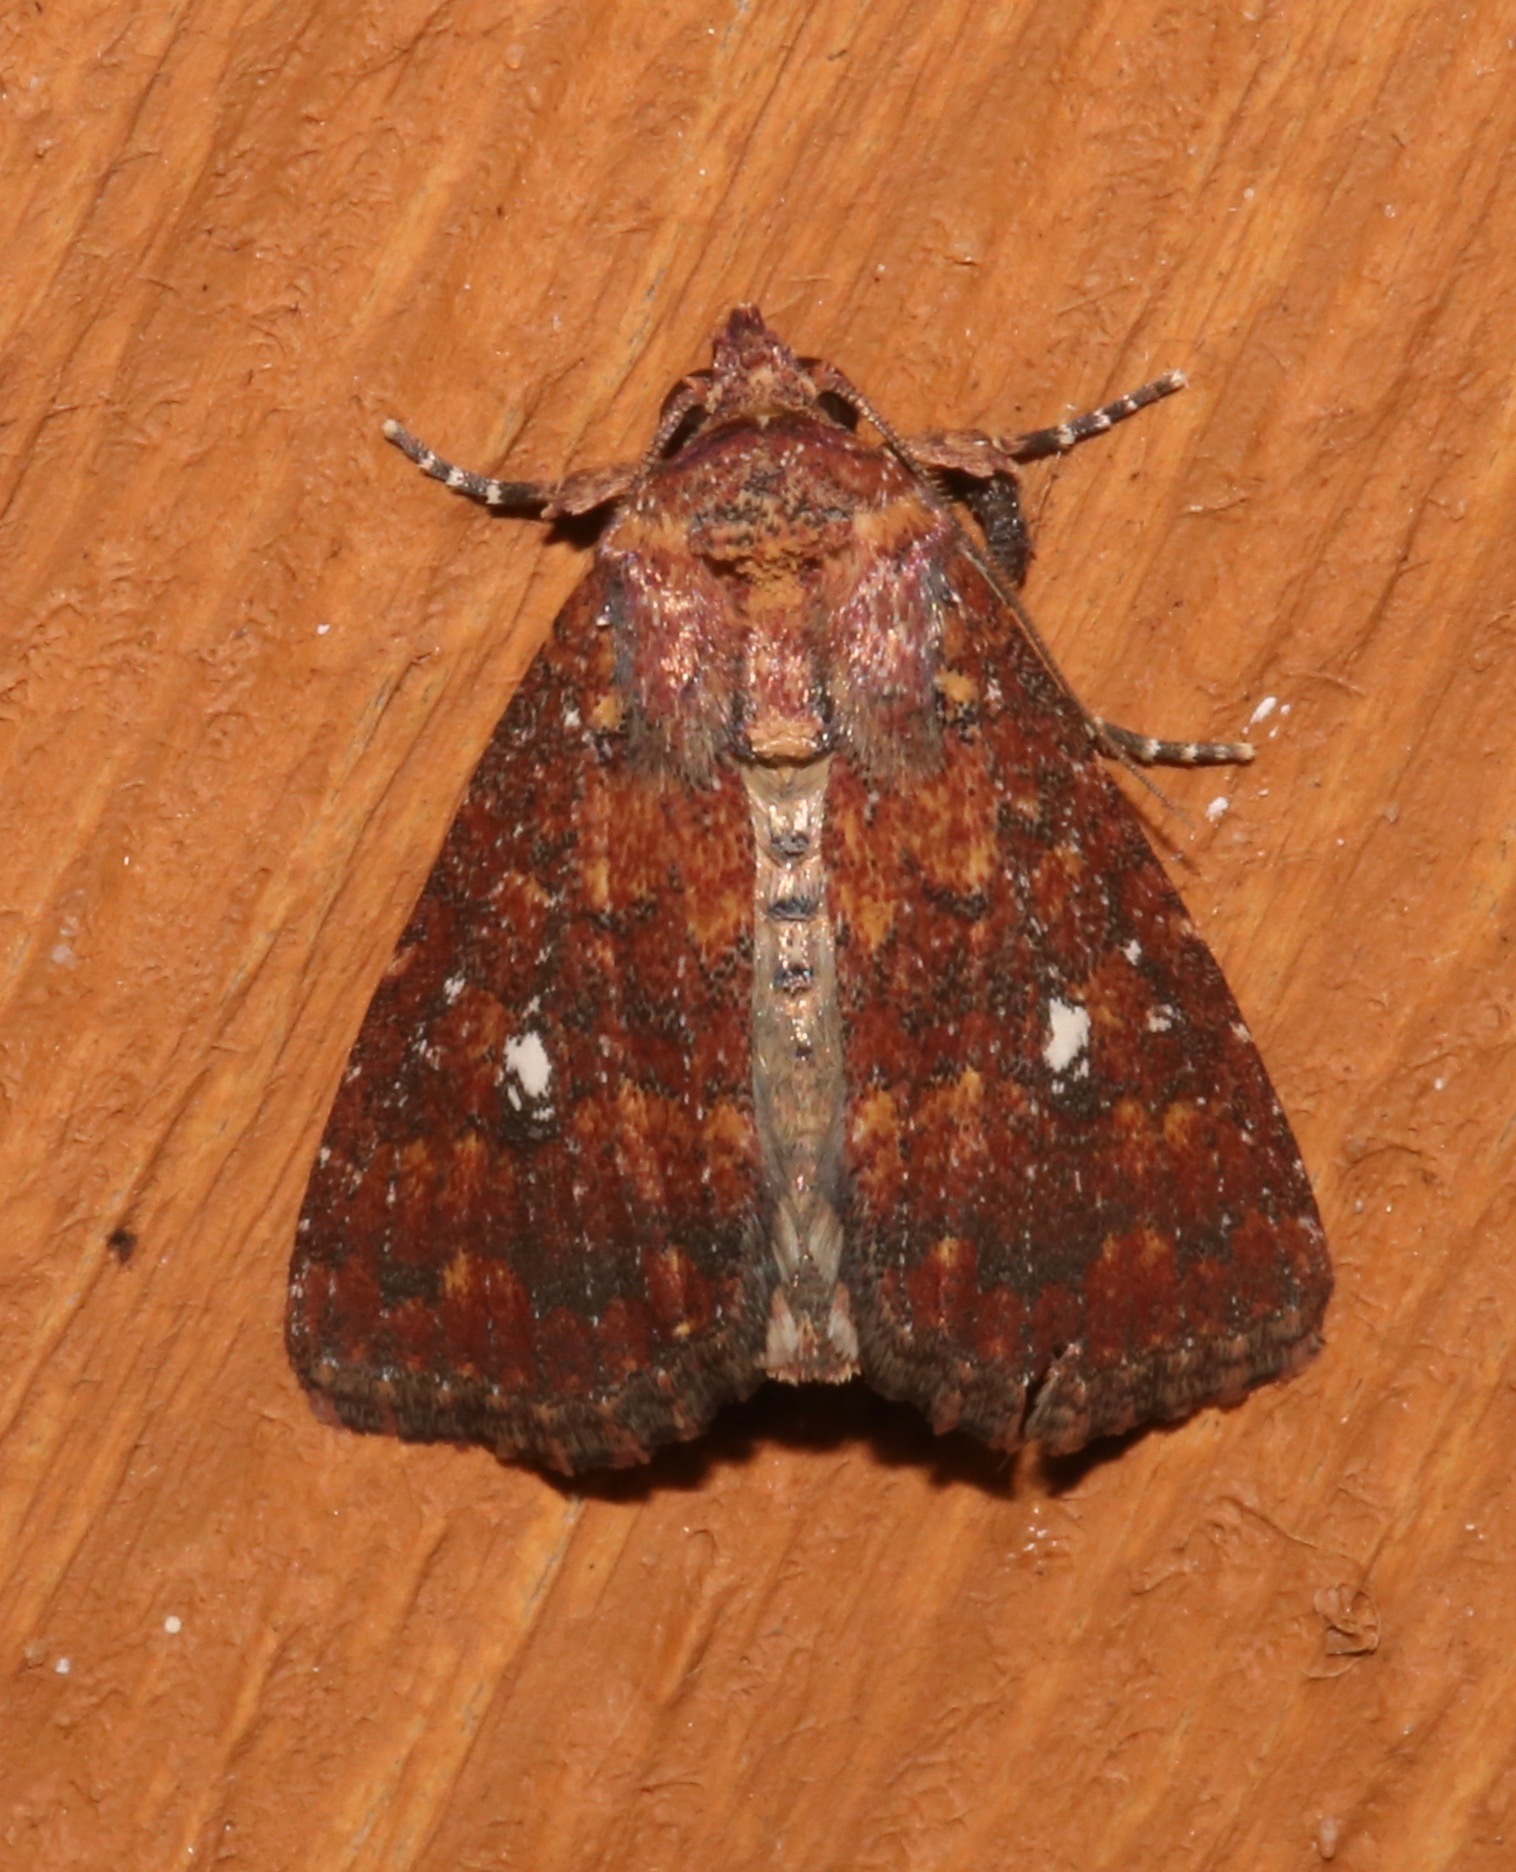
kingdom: Animalia
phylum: Arthropoda
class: Insecta
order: Lepidoptera
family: Noctuidae
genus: Condica
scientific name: Condica mobilis
